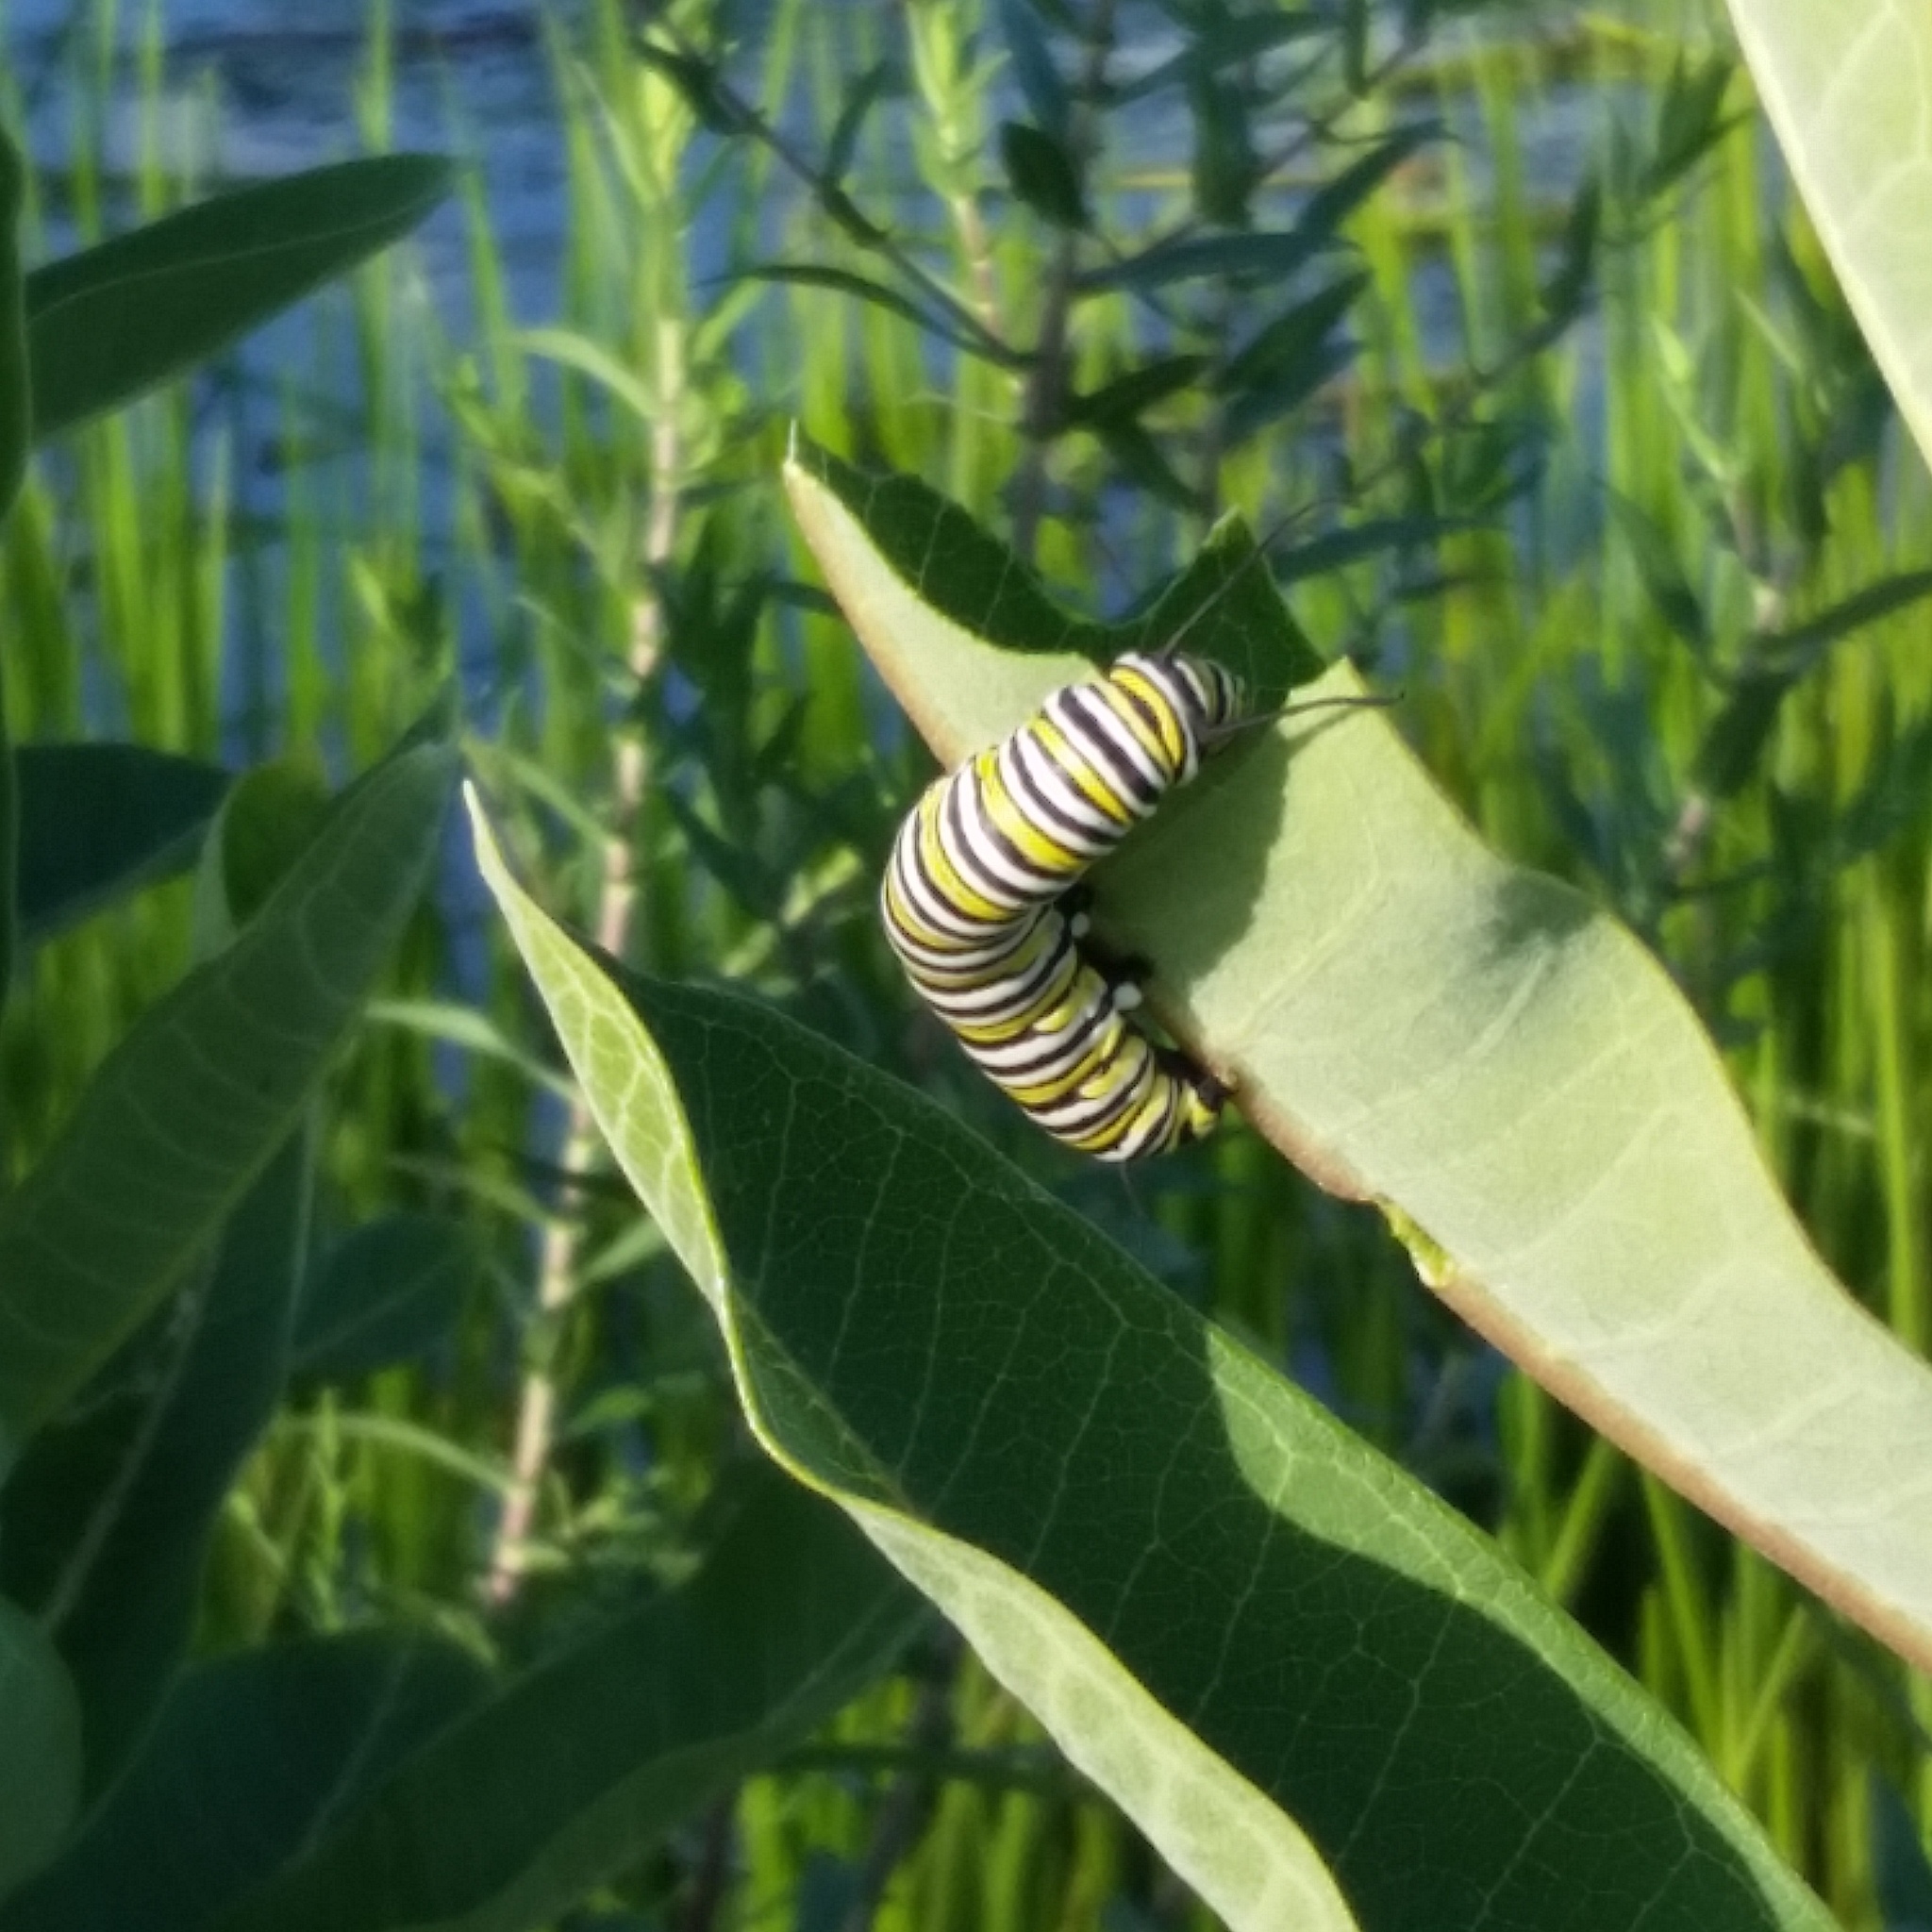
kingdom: Animalia
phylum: Arthropoda
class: Insecta
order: Lepidoptera
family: Nymphalidae
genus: Danaus
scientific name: Danaus plexippus
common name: Monarch
